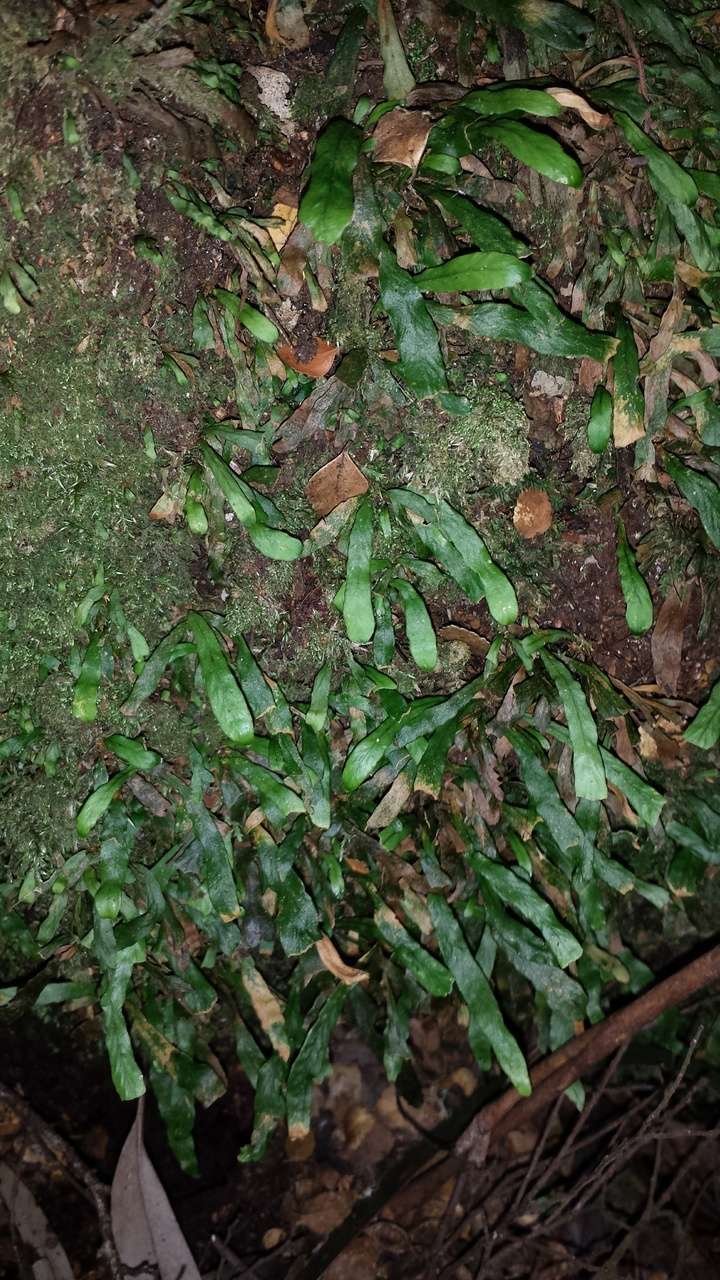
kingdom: Plantae
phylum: Tracheophyta
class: Polypodiopsida
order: Polypodiales
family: Polypodiaceae
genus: Notogrammitis
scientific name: Notogrammitis billardierei
